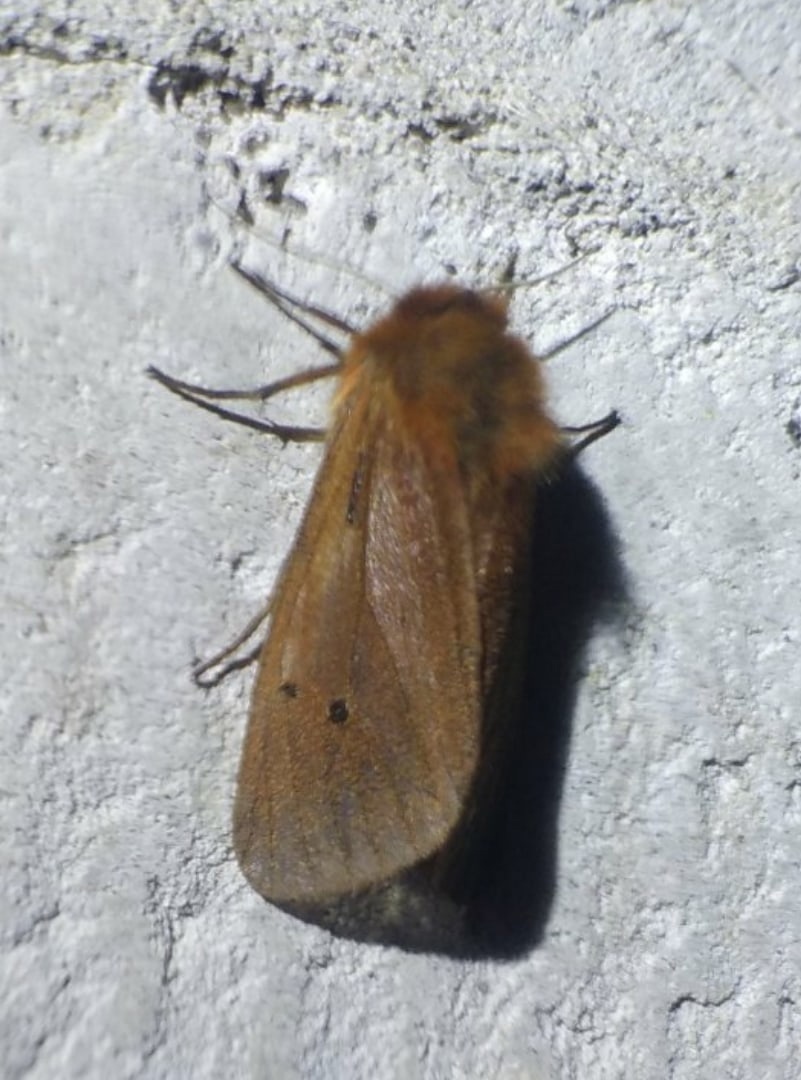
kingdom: Animalia
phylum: Arthropoda
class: Insecta
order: Lepidoptera
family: Erebidae
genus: Phragmatobia
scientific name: Phragmatobia fuliginosa
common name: Ruby tiger
